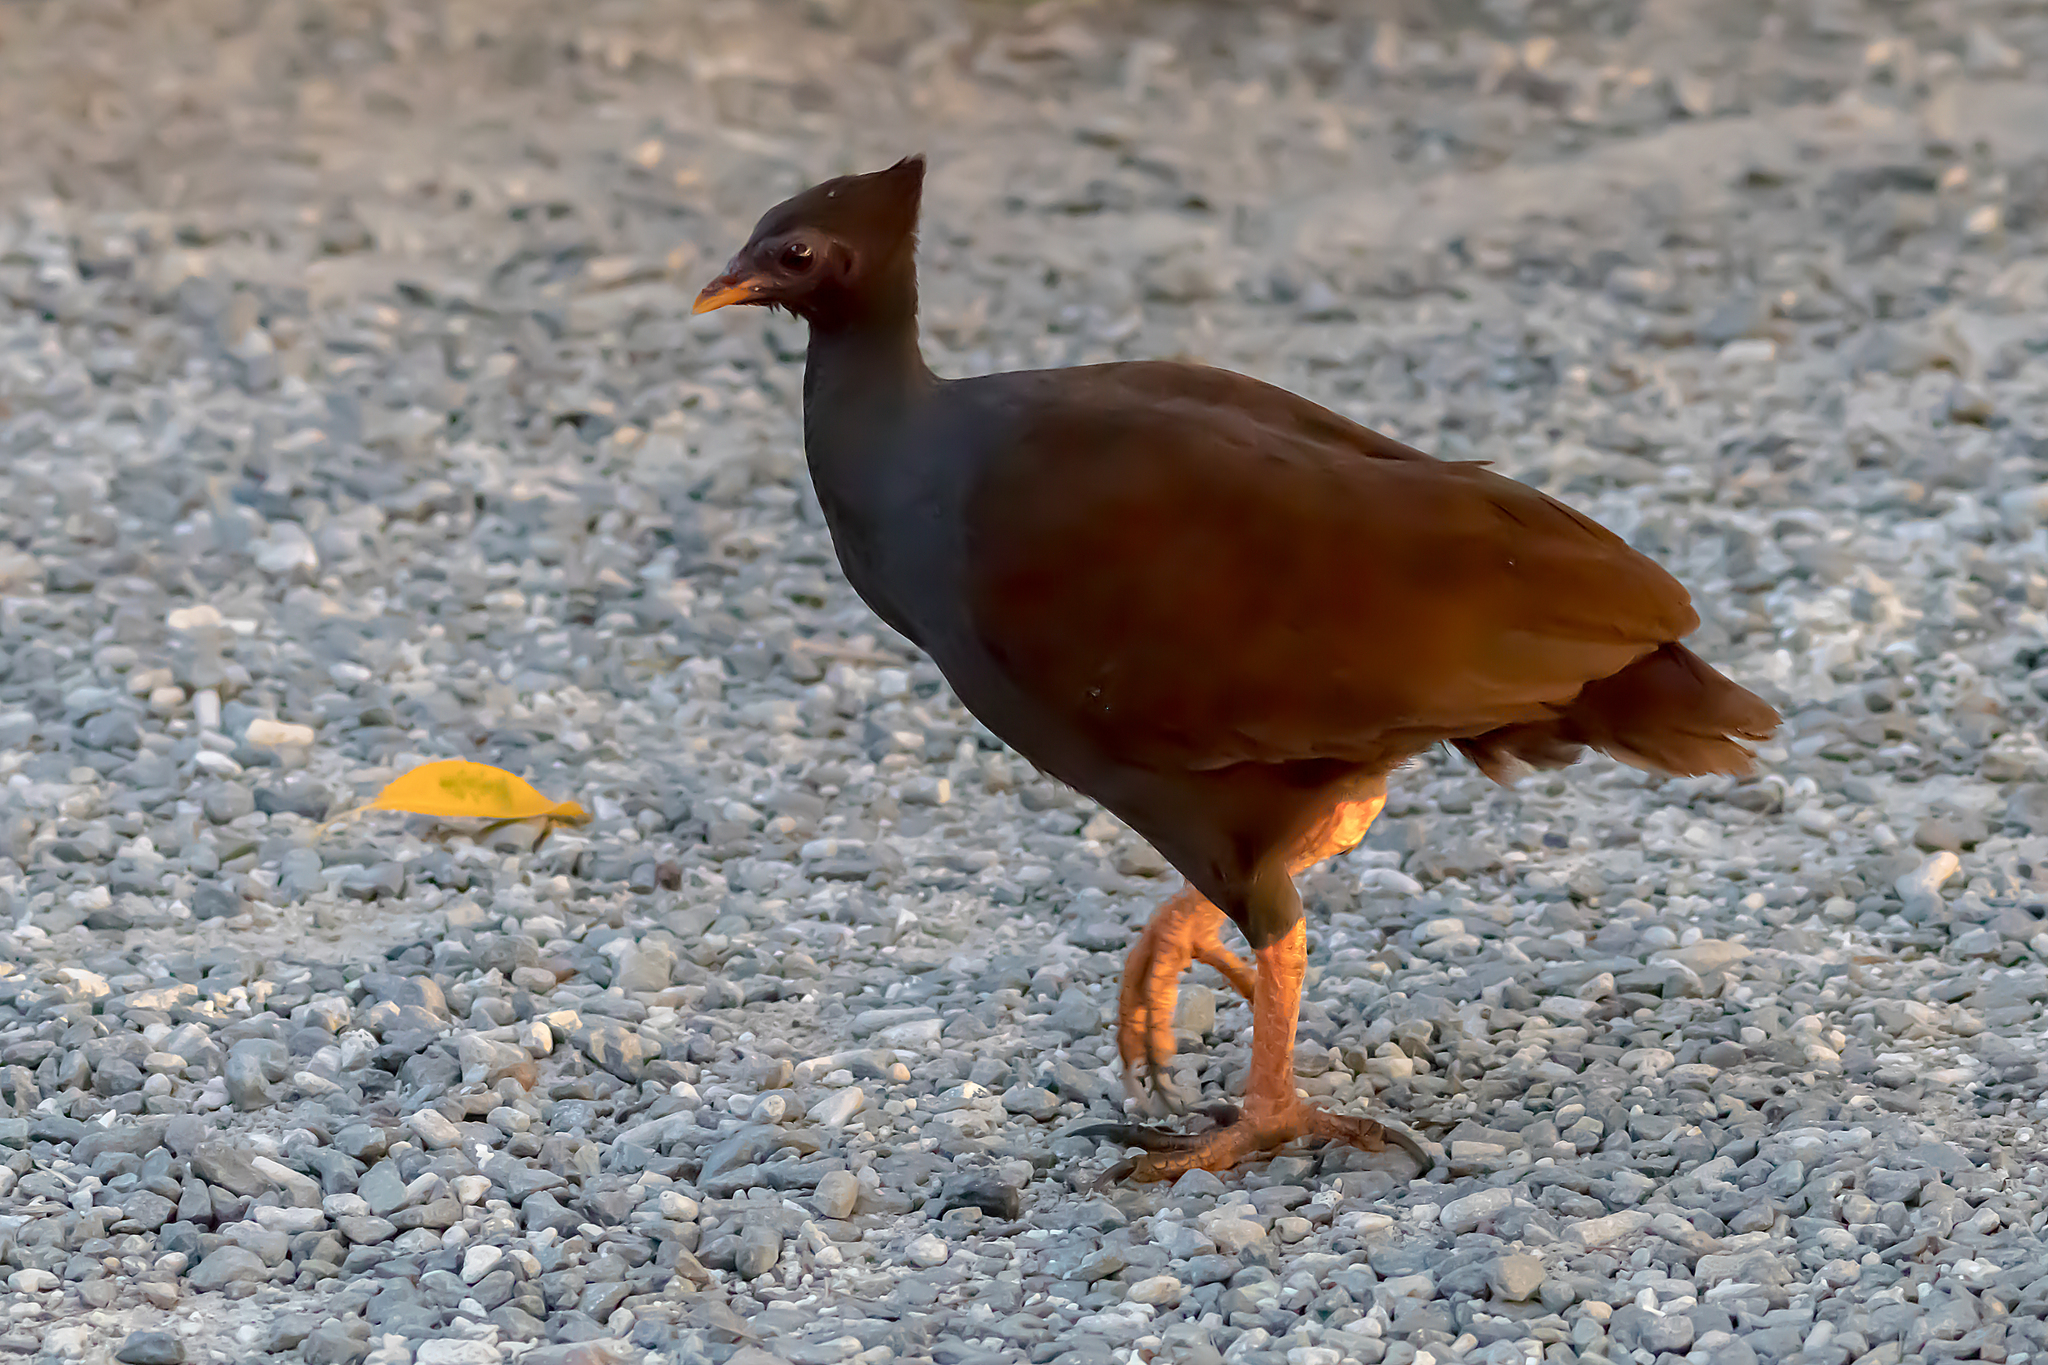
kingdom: Animalia
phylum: Chordata
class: Aves
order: Galliformes
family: Megapodiidae
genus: Megapodius
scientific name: Megapodius reinwardt
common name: Orange-footed scrubfowl
